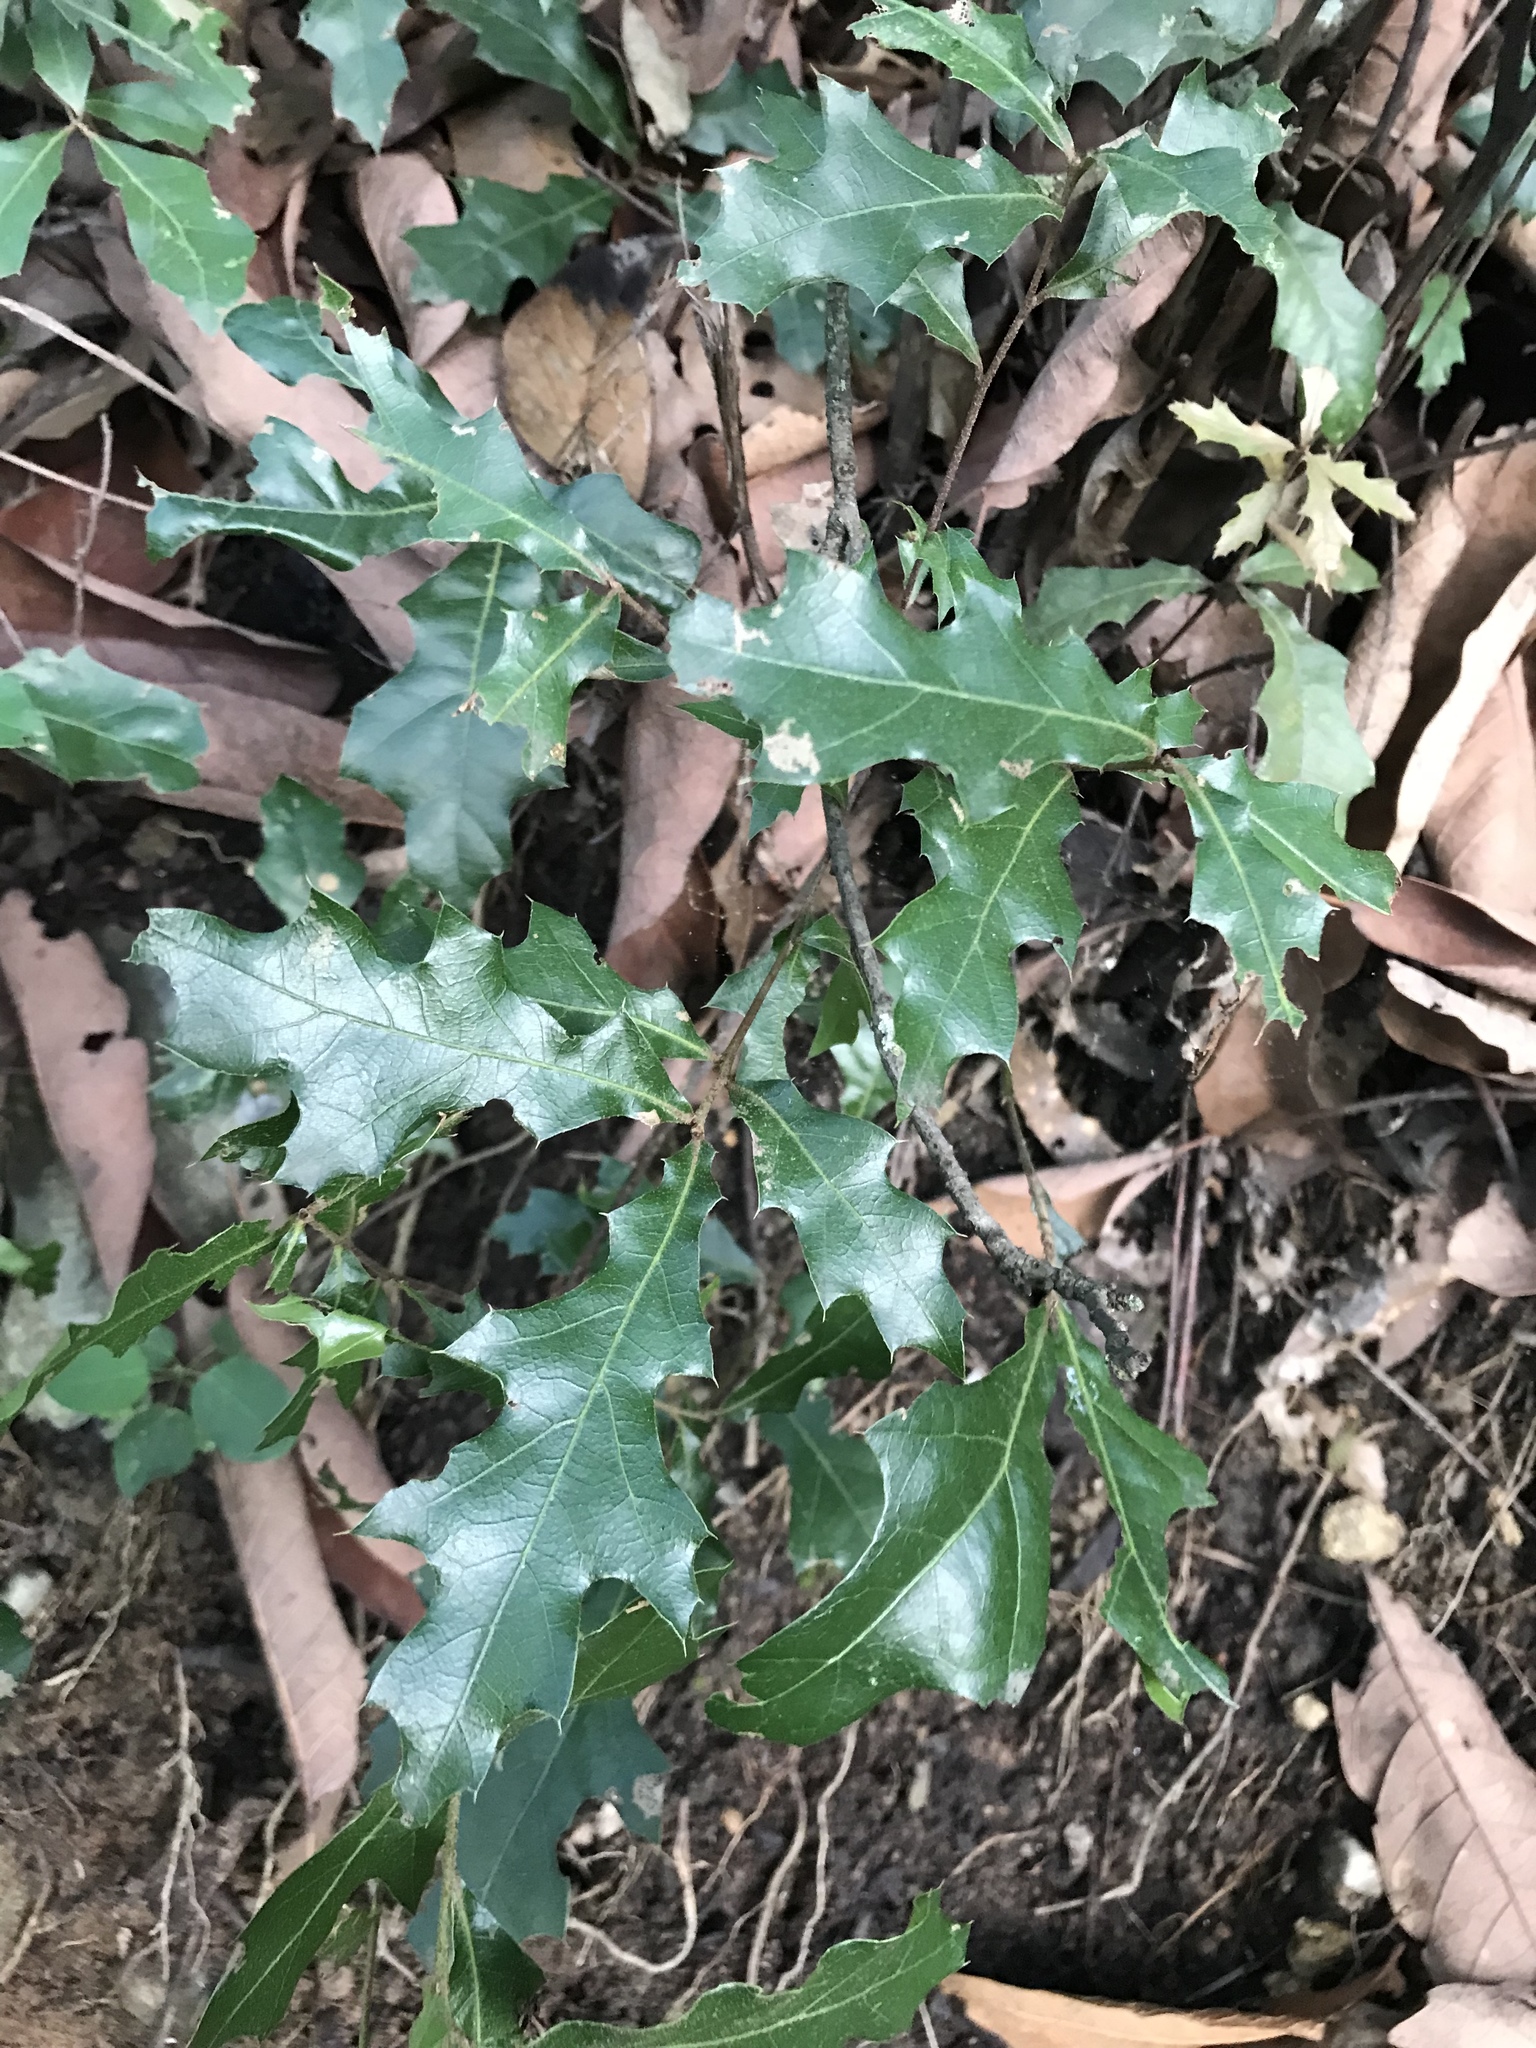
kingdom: Plantae
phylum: Tracheophyta
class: Magnoliopsida
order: Fagales
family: Fagaceae
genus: Quercus
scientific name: Quercus gravesii
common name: Chisos red oak
